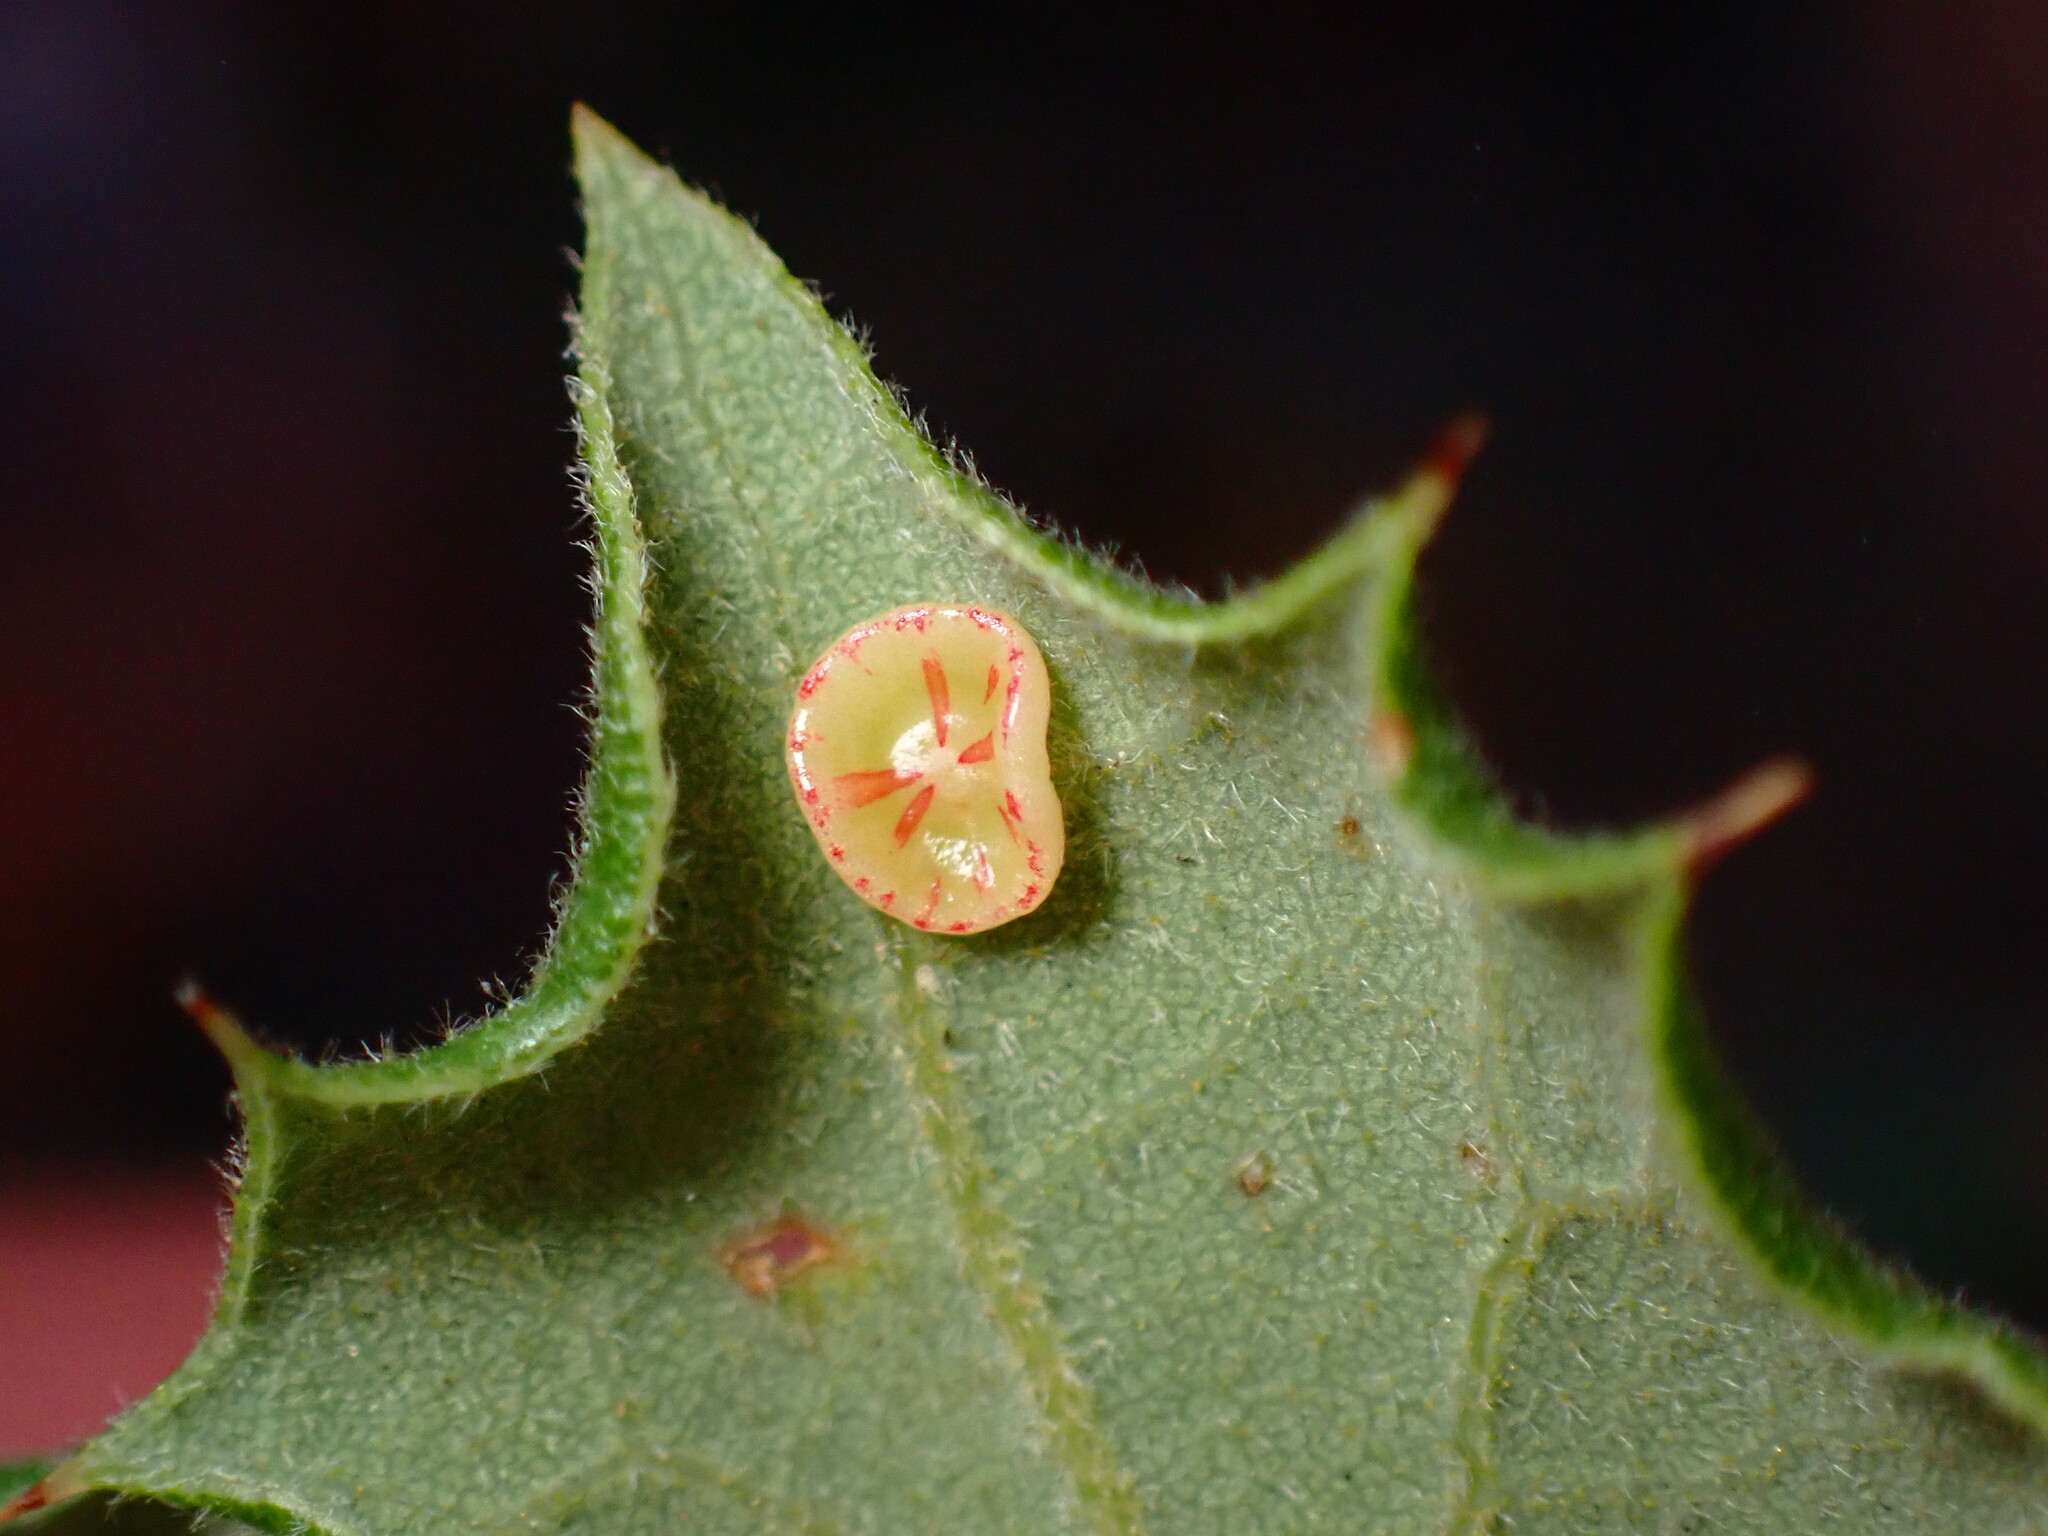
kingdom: Animalia
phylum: Arthropoda
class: Insecta
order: Hymenoptera
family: Cynipidae
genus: Andricus
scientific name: Andricus
